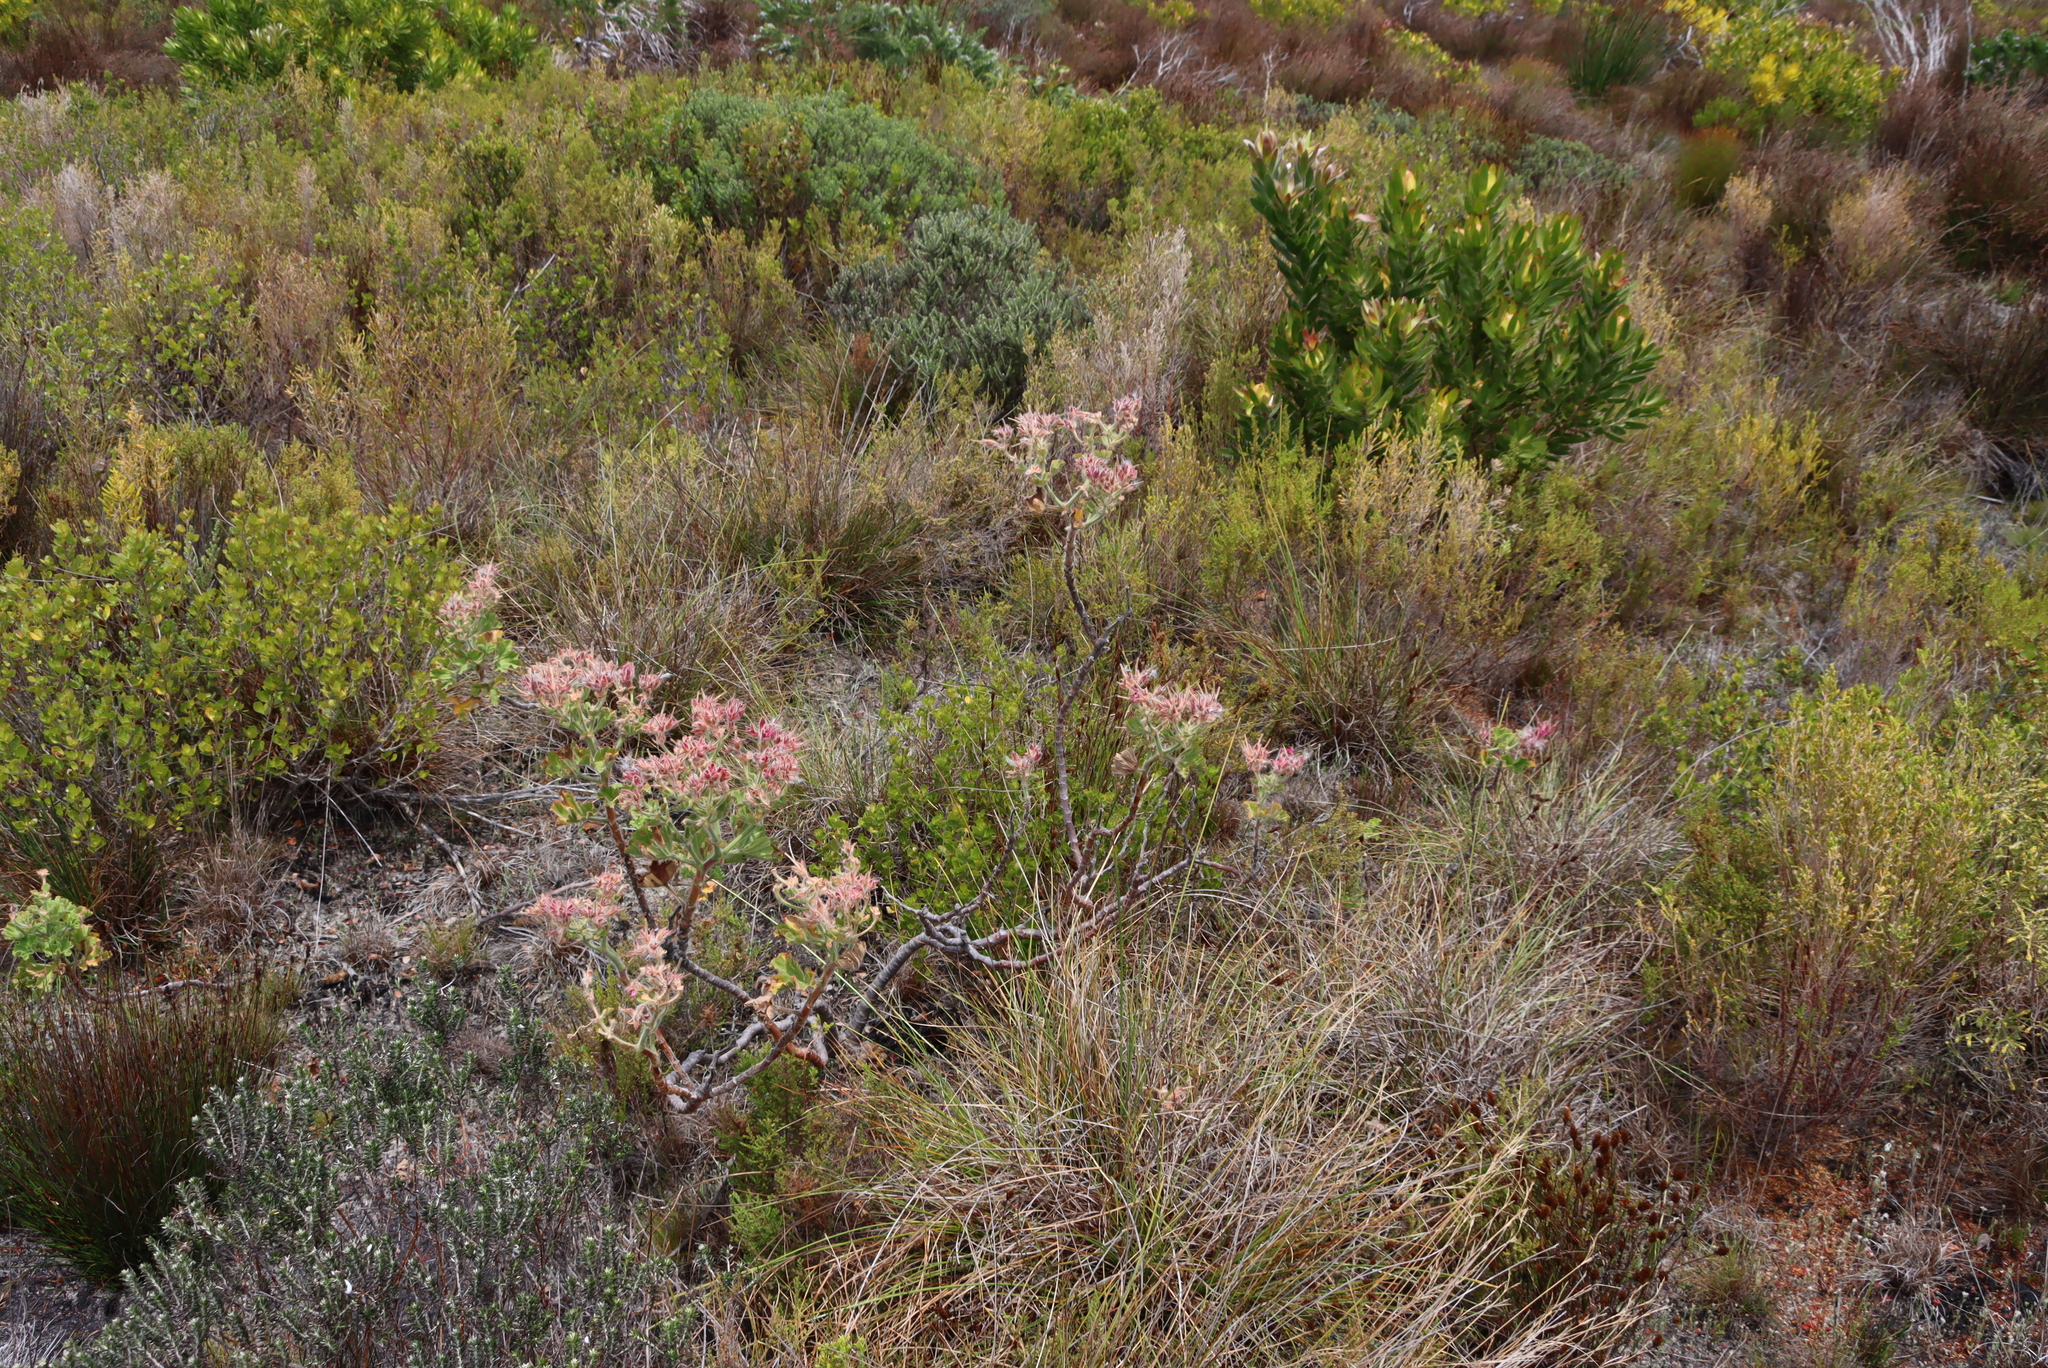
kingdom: Plantae
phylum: Tracheophyta
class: Magnoliopsida
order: Geraniales
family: Geraniaceae
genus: Pelargonium
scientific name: Pelargonium cucullatum
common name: Tree pelargonium
